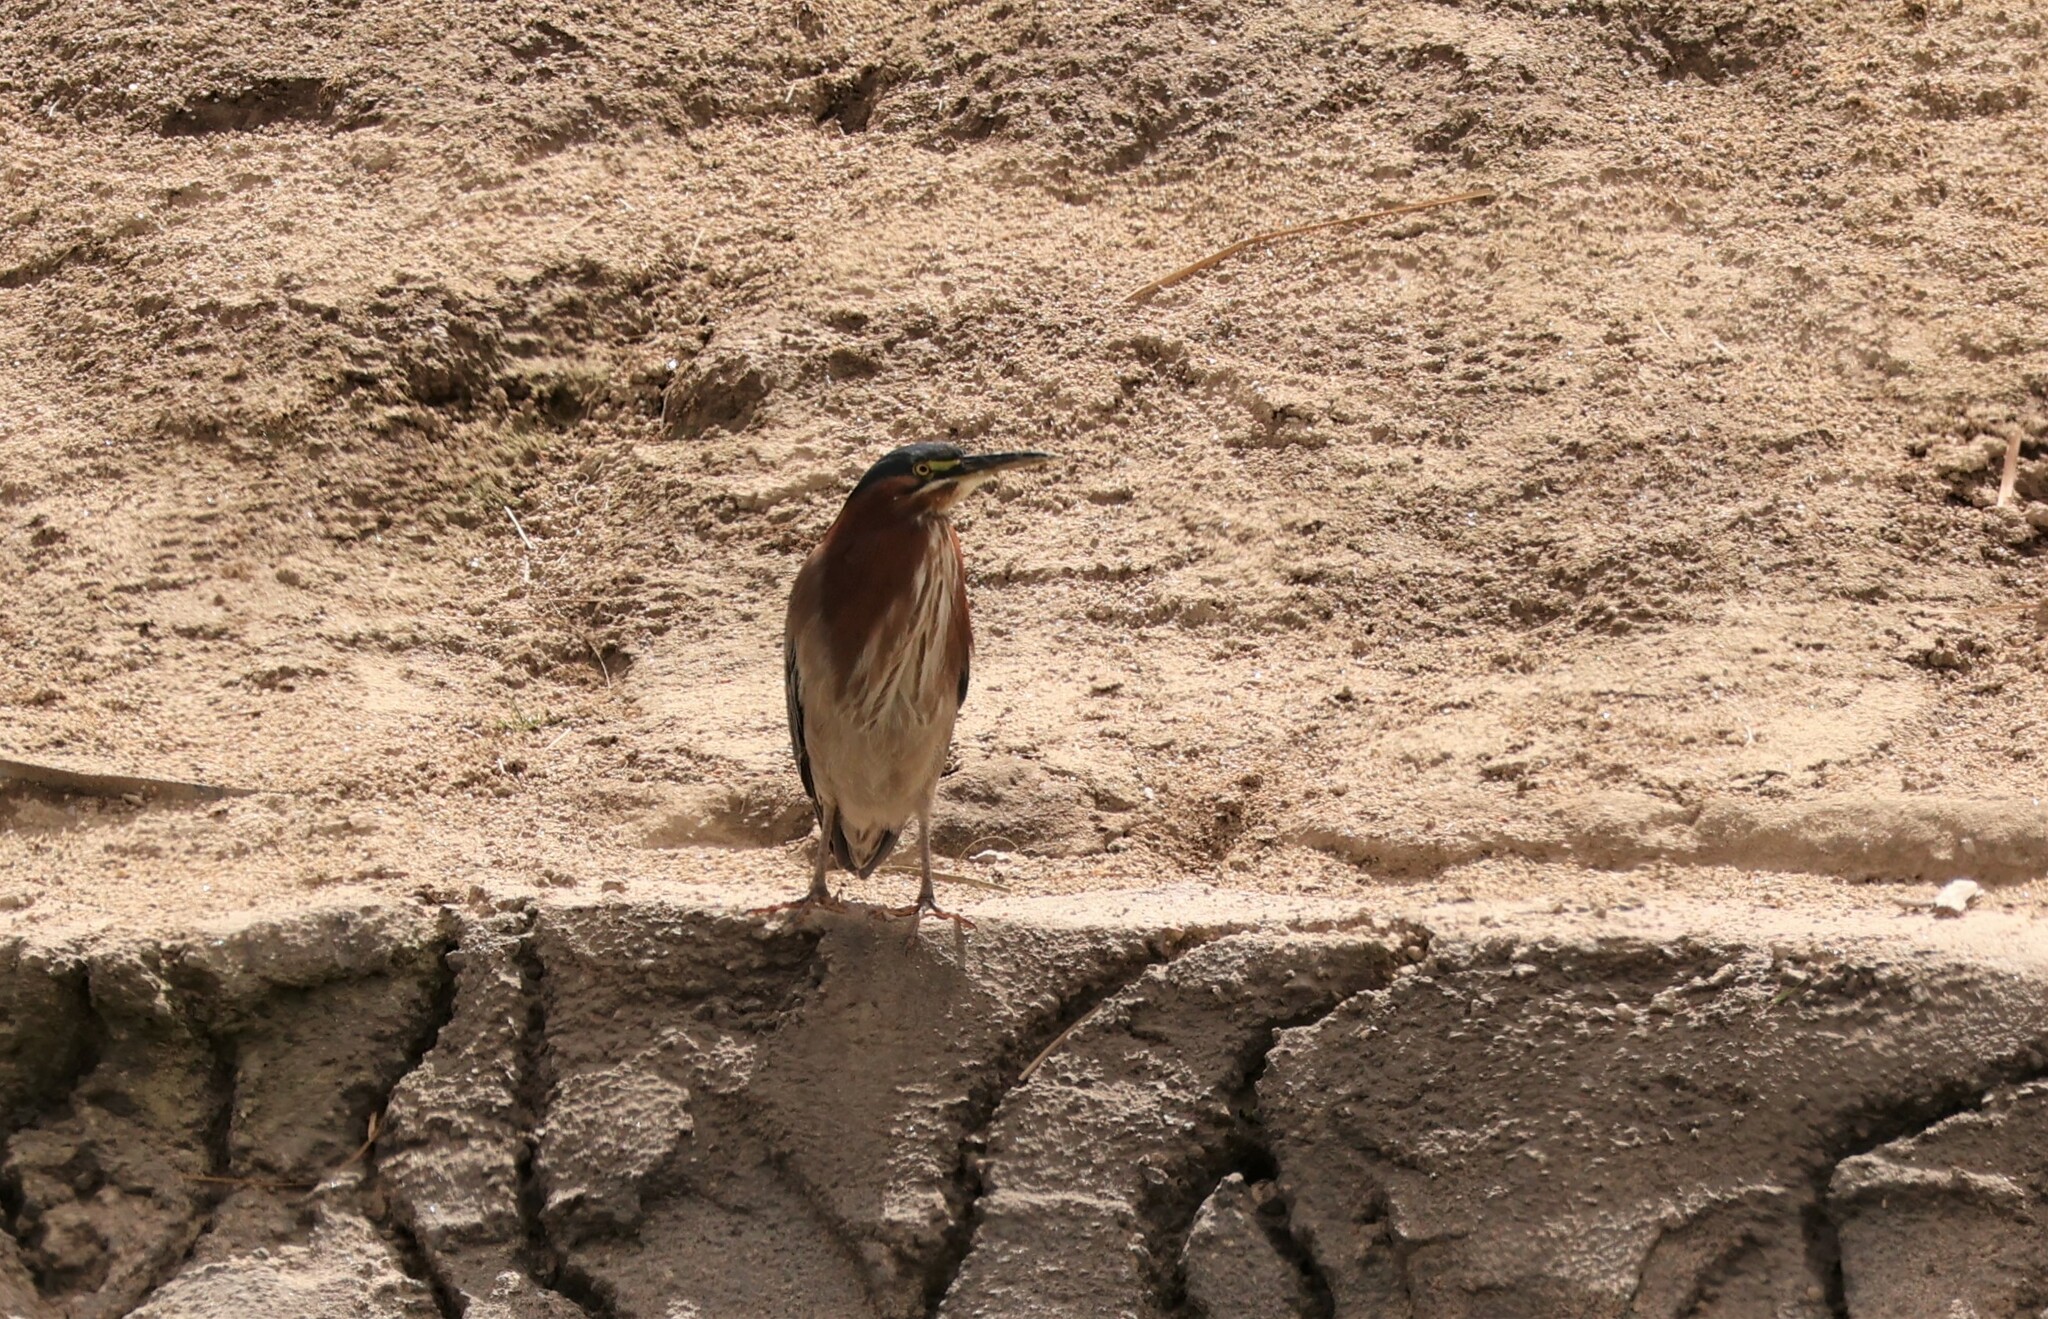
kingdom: Animalia
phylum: Chordata
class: Aves
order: Pelecaniformes
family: Ardeidae
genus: Butorides
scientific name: Butorides virescens
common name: Green heron
